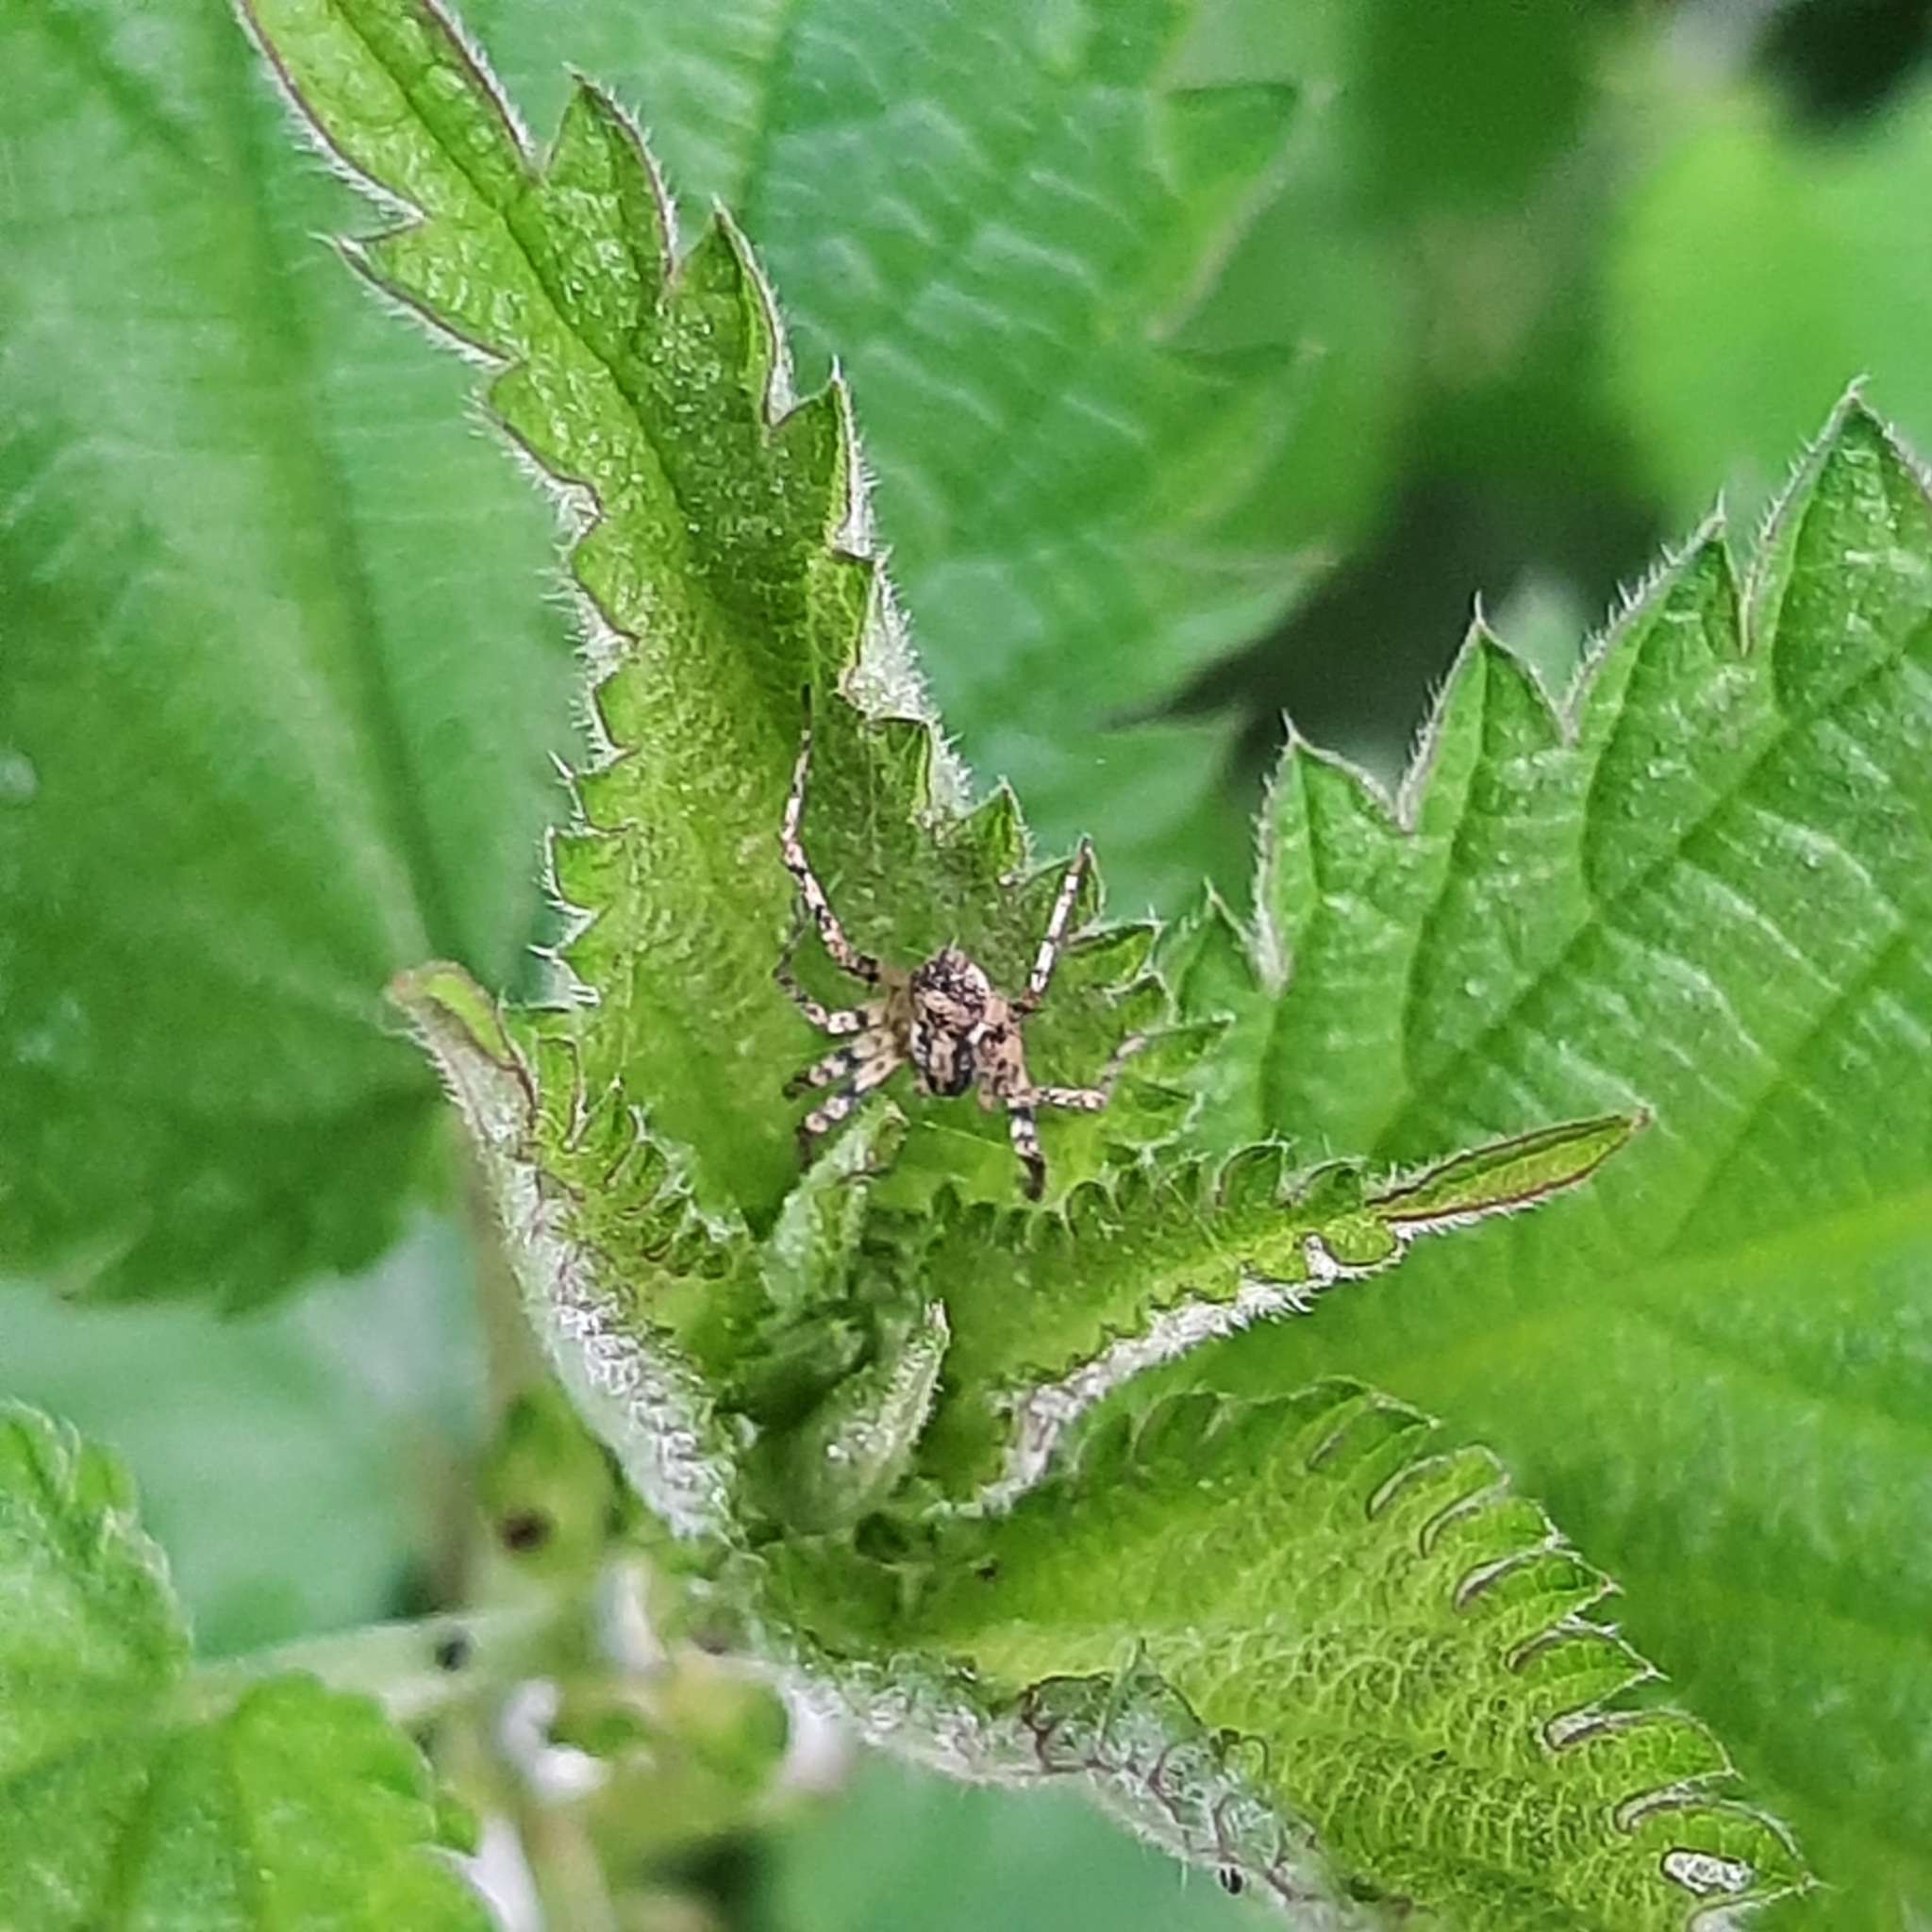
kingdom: Animalia
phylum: Arthropoda
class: Arachnida
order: Araneae
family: Anyphaenidae
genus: Anyphaena
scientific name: Anyphaena accentuata
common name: Buzzing spider
